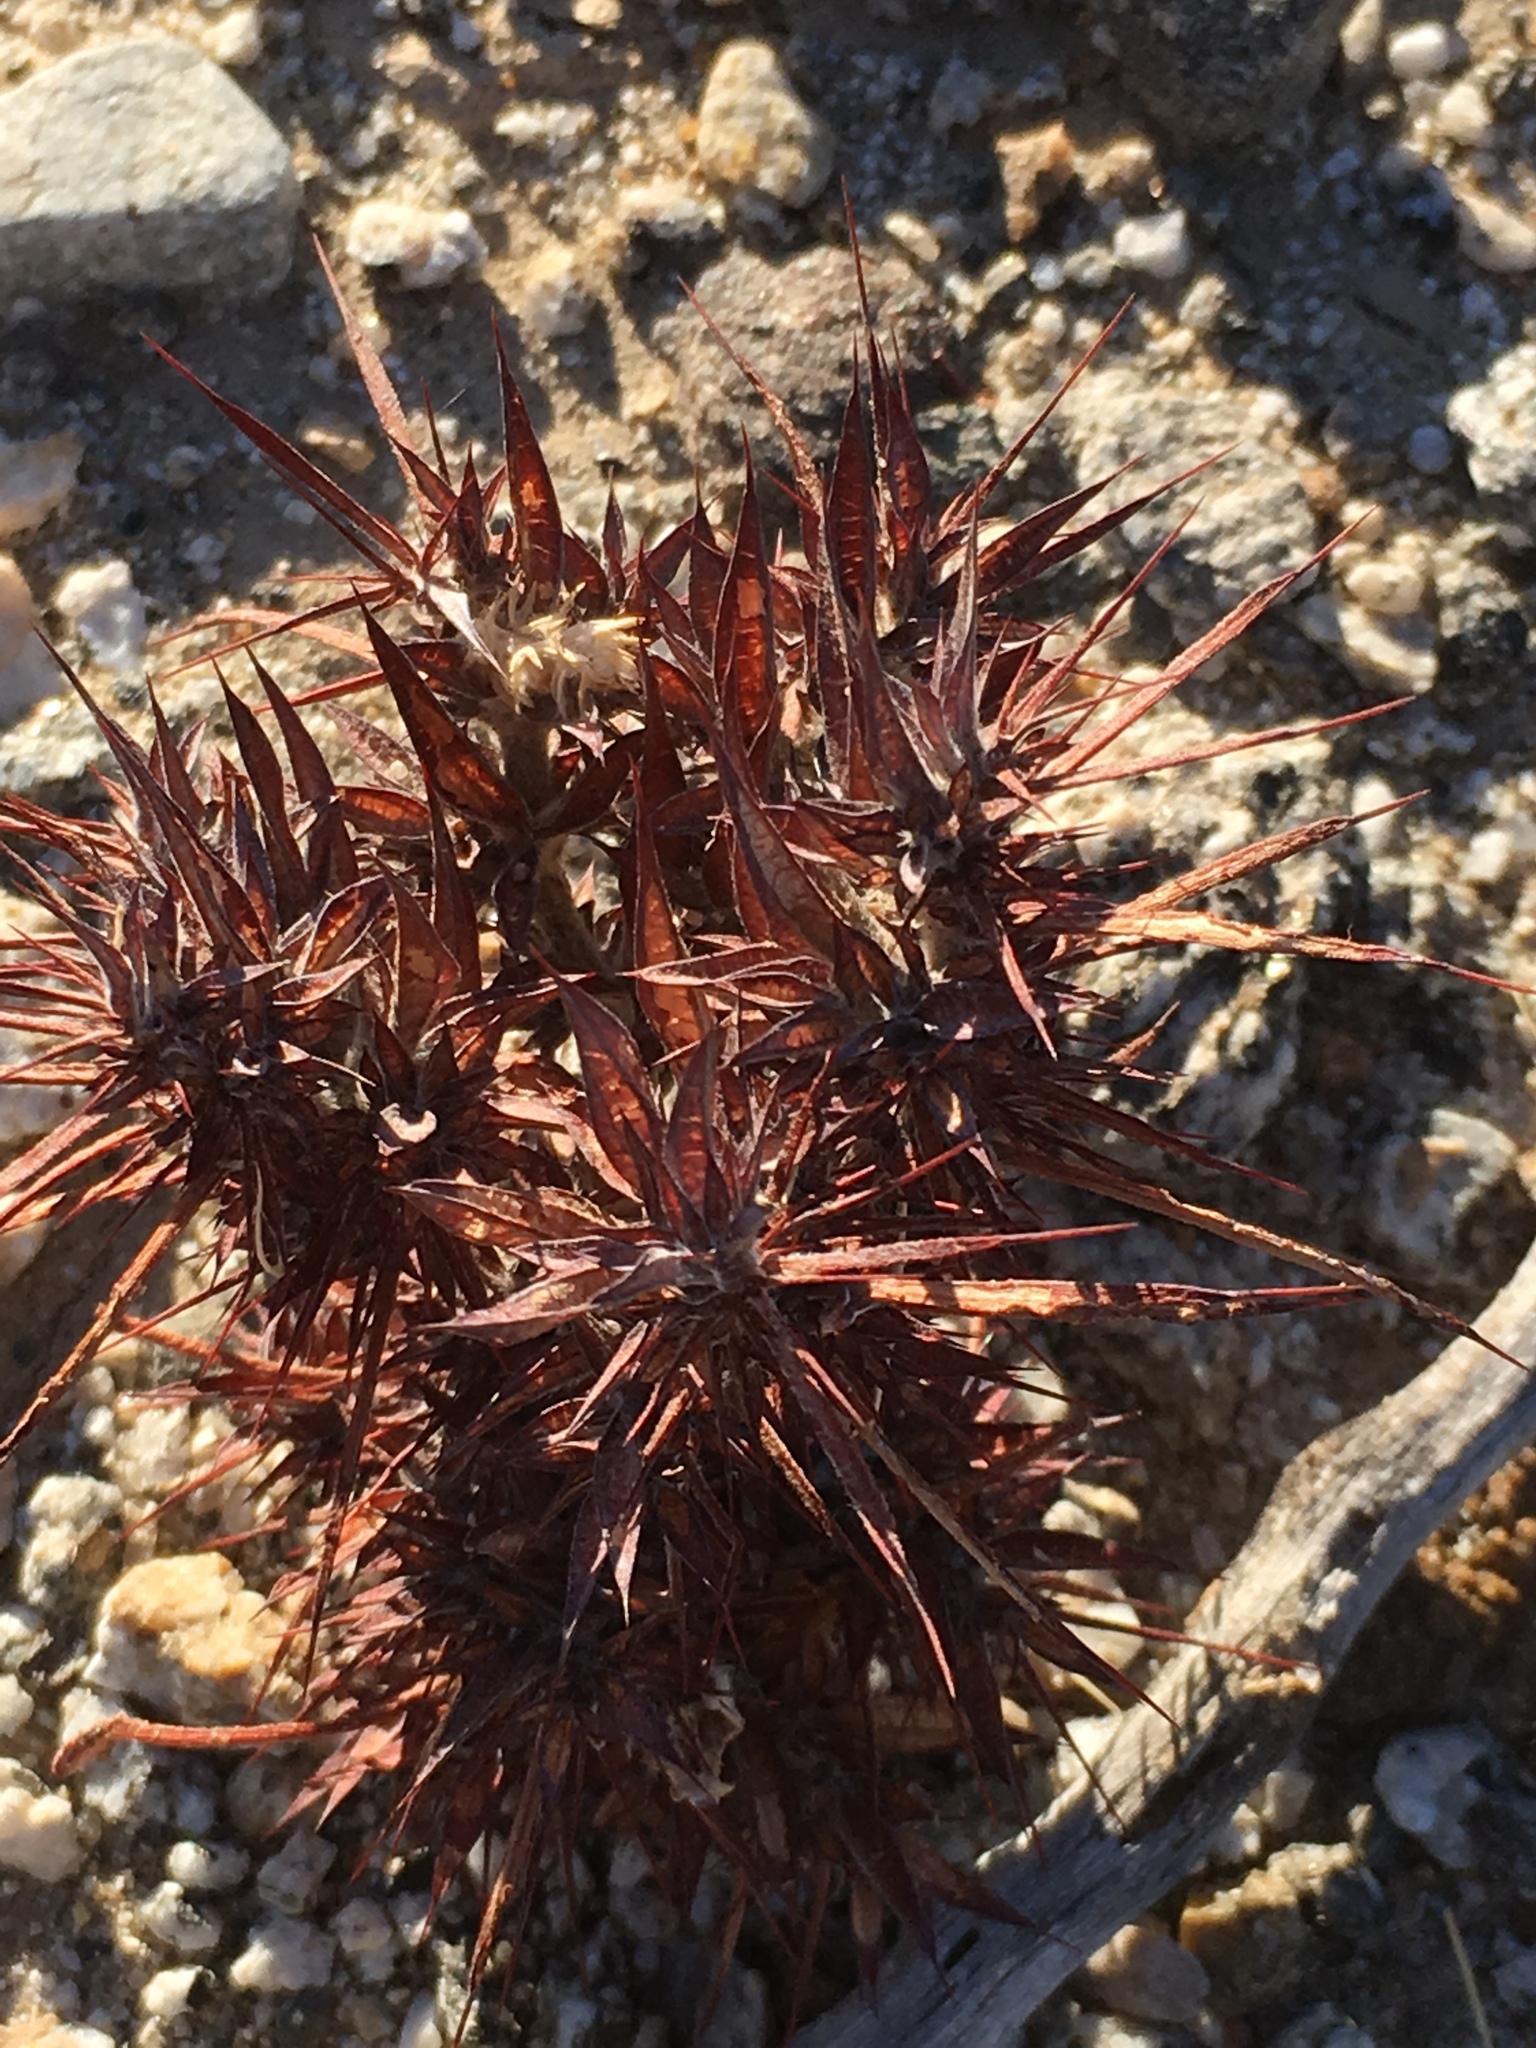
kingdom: Plantae
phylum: Tracheophyta
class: Magnoliopsida
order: Caryophyllales
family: Polygonaceae
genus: Chorizanthe
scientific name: Chorizanthe rigida
